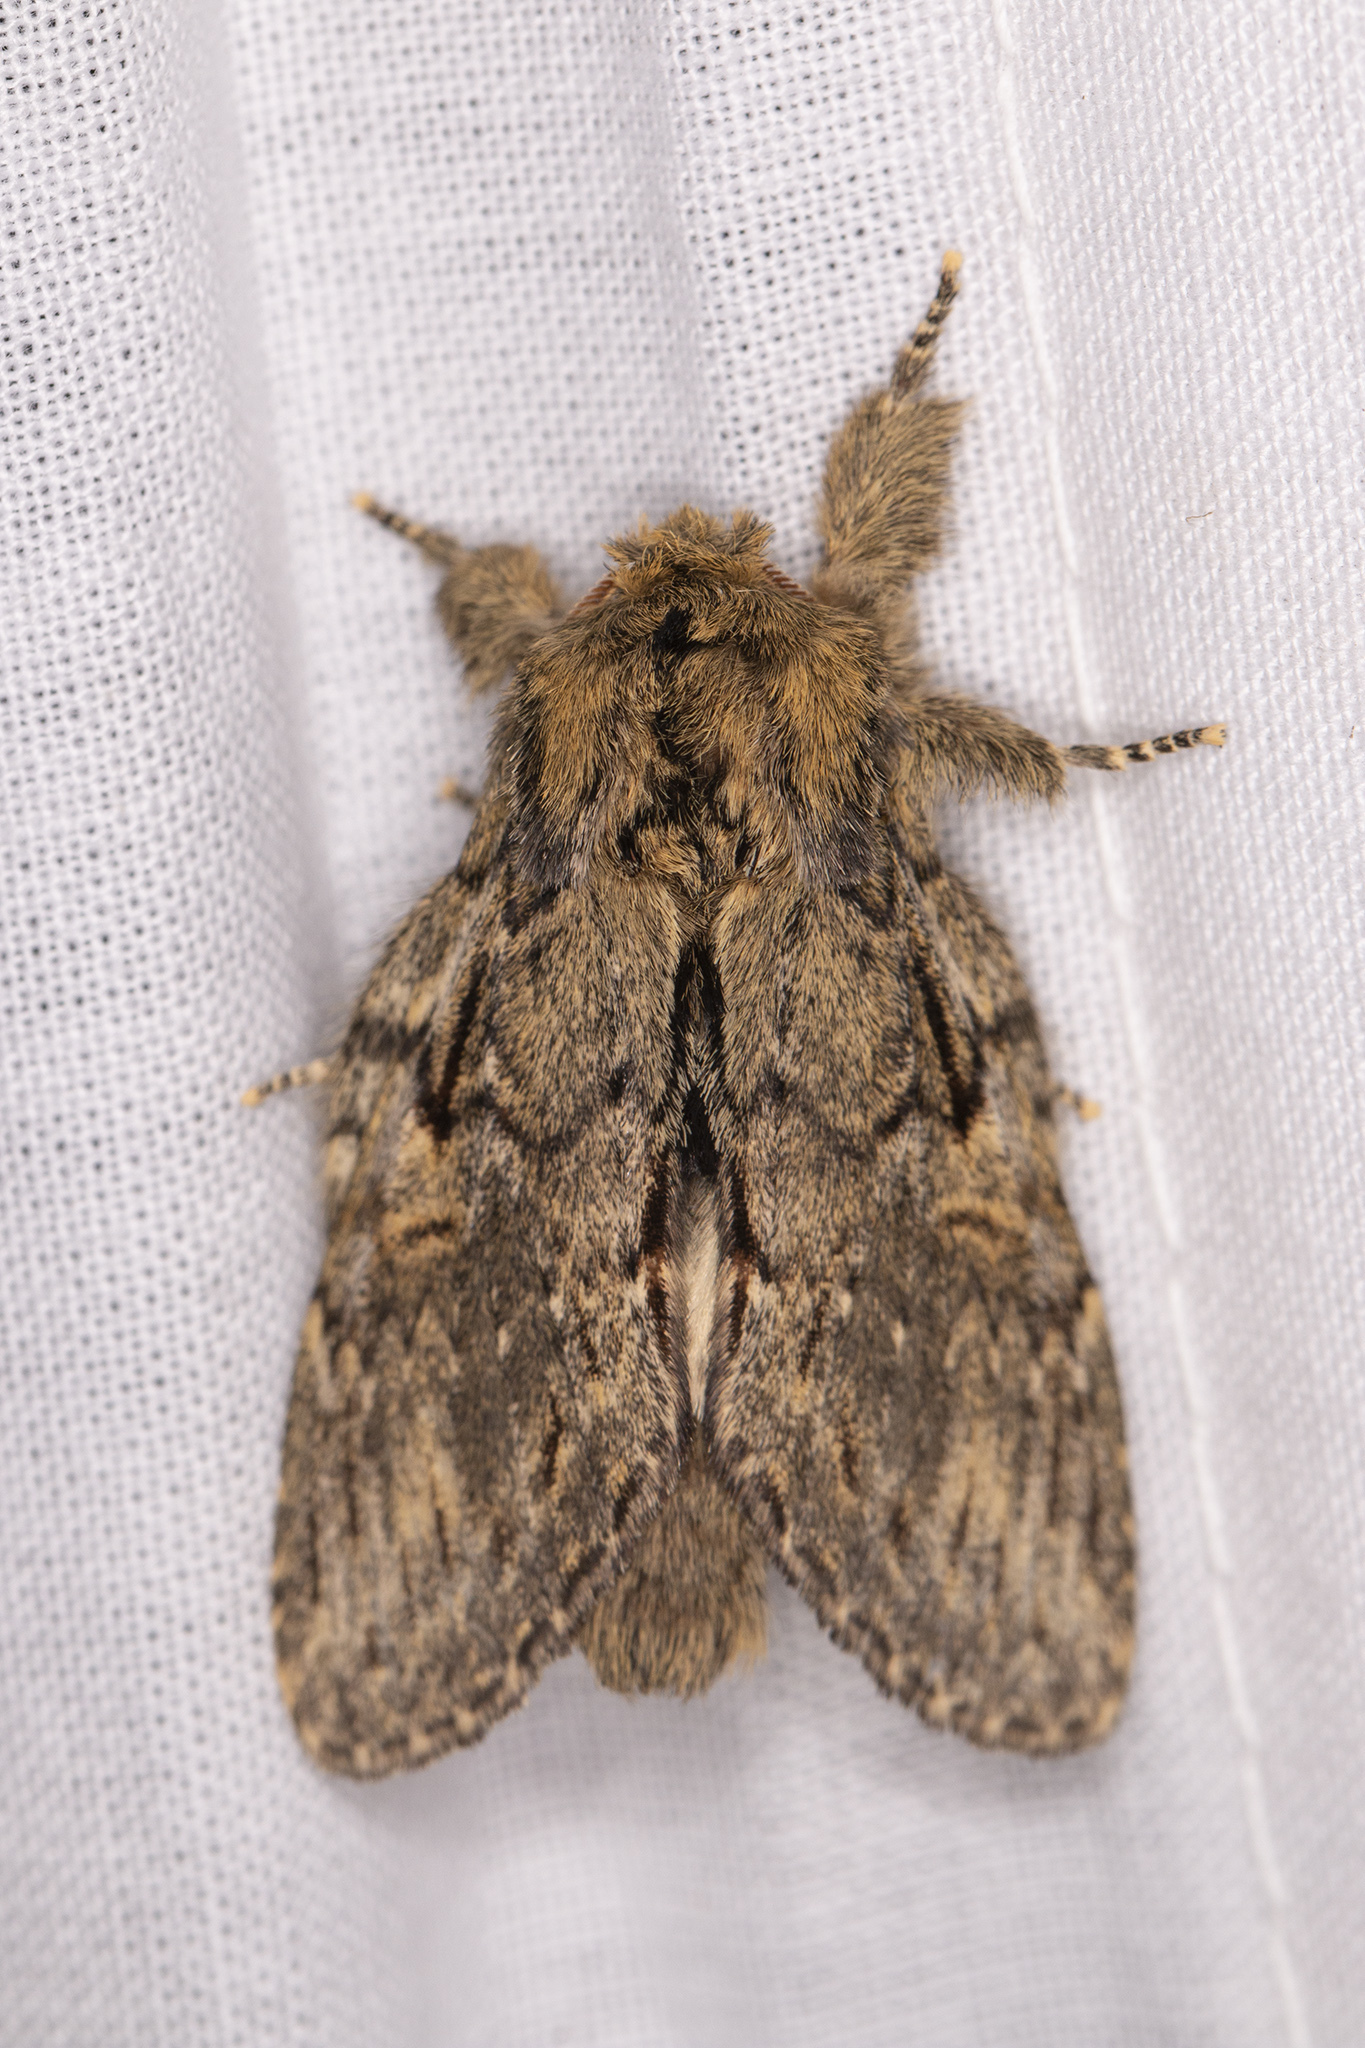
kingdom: Animalia
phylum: Arthropoda
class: Insecta
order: Lepidoptera
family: Notodontidae
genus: Peridea
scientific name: Peridea anceps
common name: Great prominent
